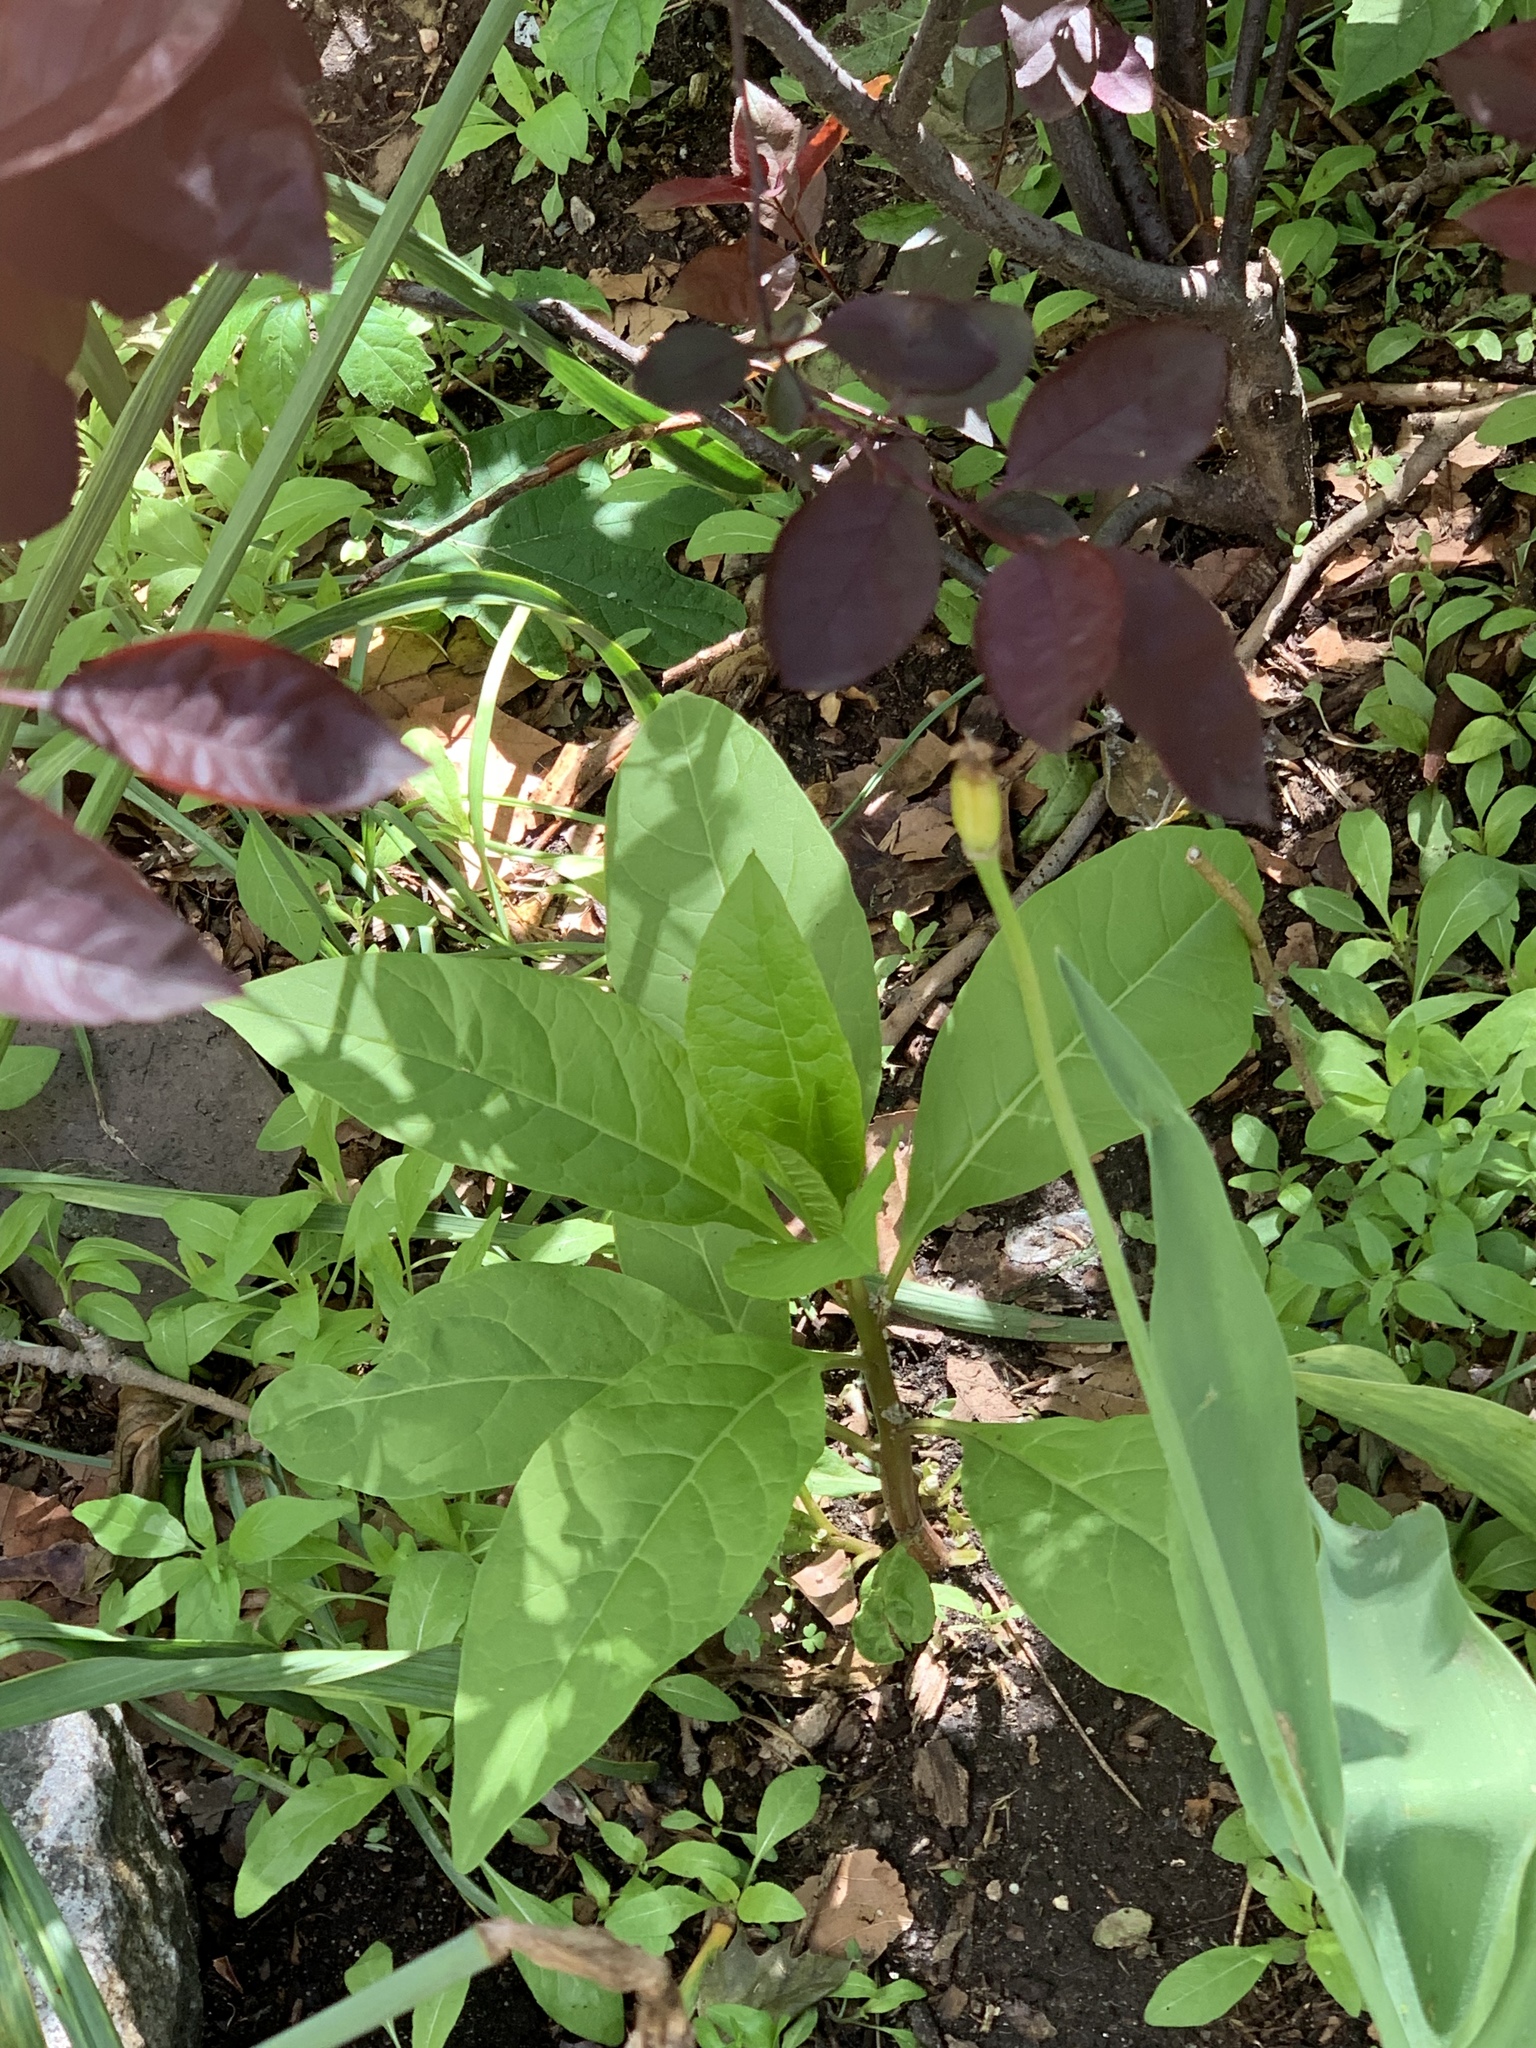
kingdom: Plantae
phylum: Tracheophyta
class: Magnoliopsida
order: Caryophyllales
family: Phytolaccaceae
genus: Phytolacca
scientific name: Phytolacca americana
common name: American pokeweed
